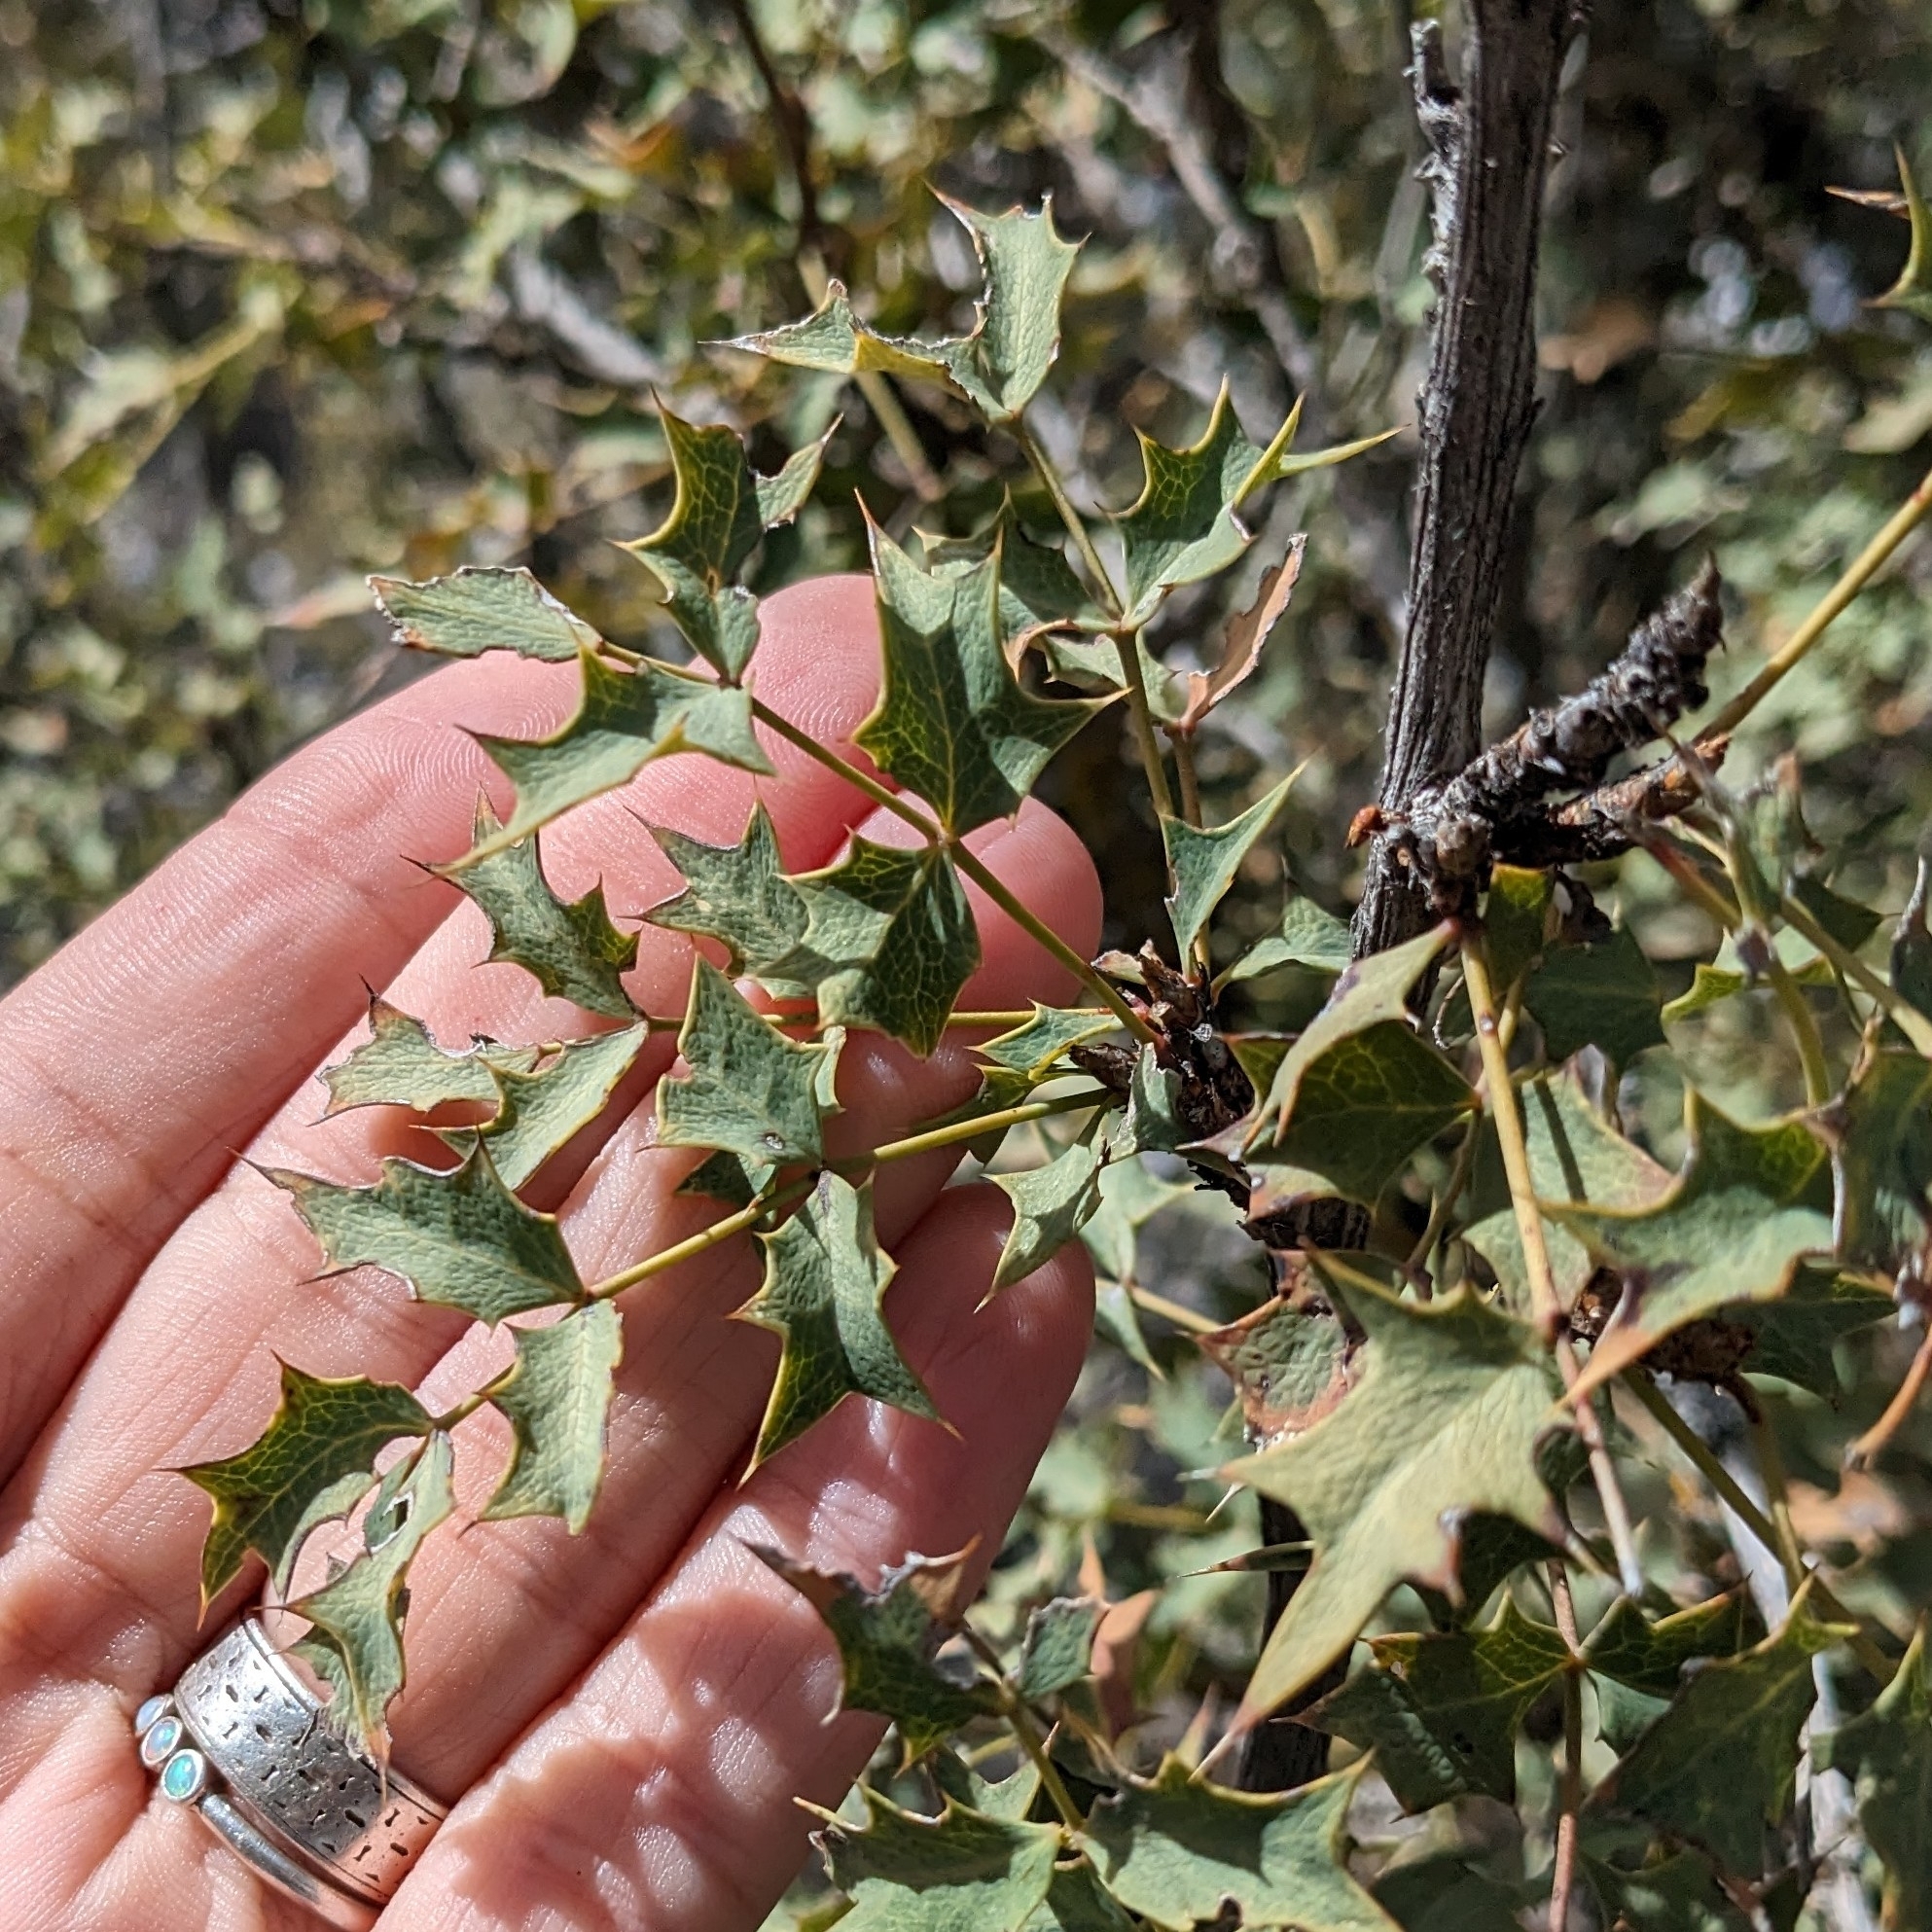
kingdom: Plantae
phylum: Tracheophyta
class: Magnoliopsida
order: Ranunculales
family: Berberidaceae
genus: Alloberberis
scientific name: Alloberberis fremontii
